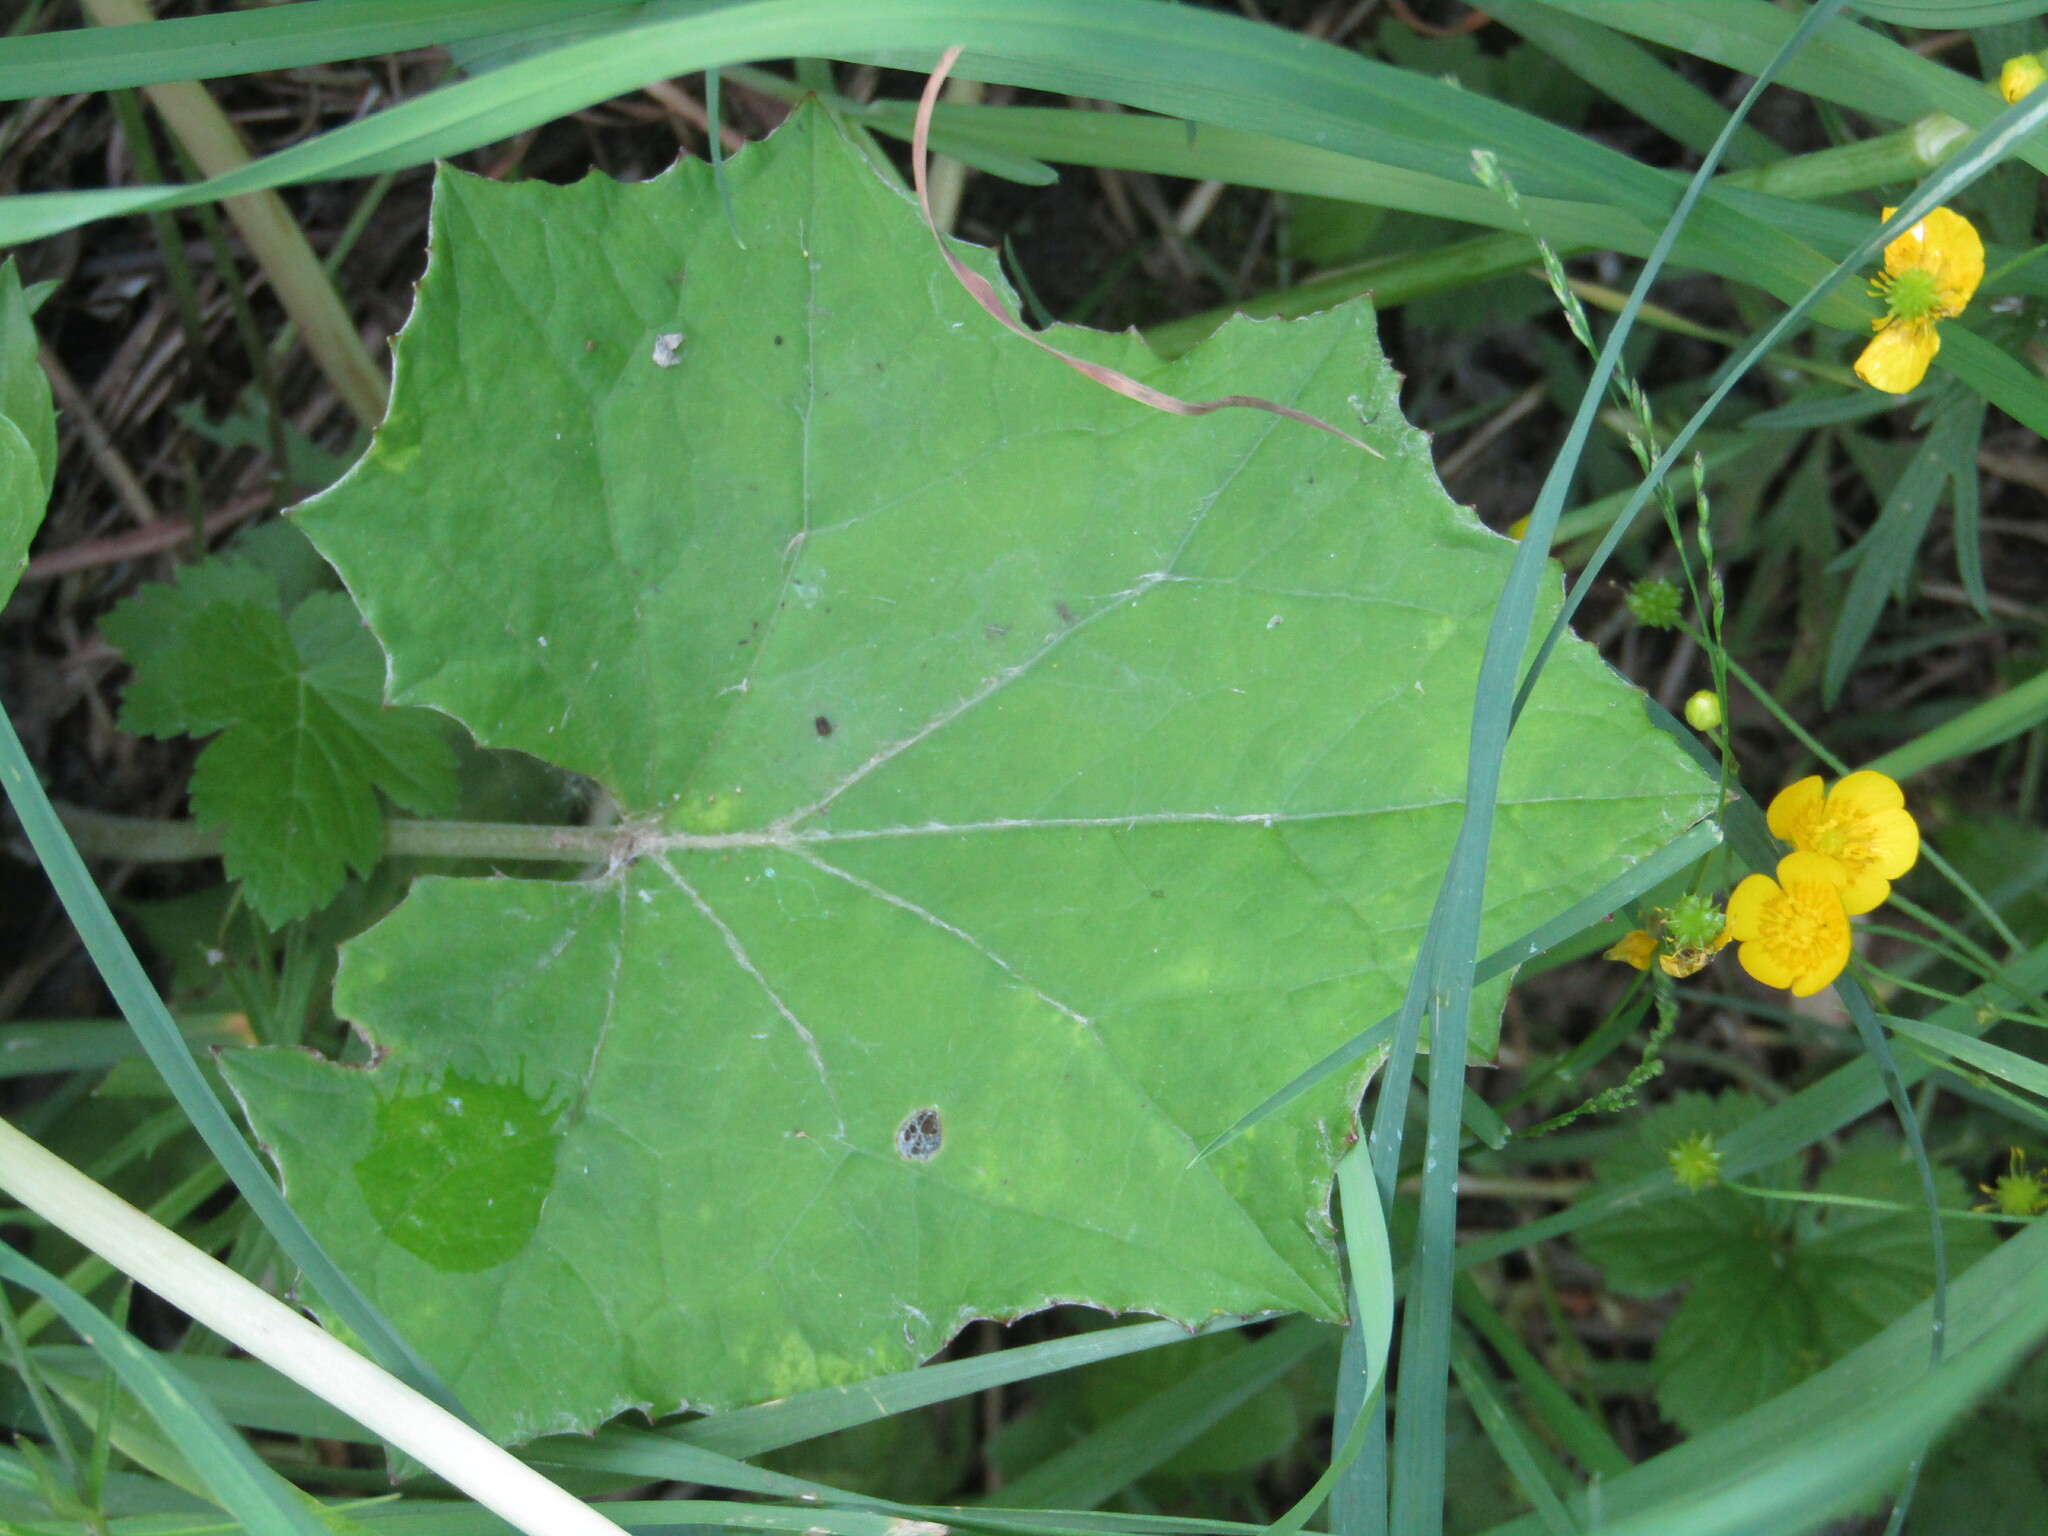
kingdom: Plantae
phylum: Tracheophyta
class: Magnoliopsida
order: Asterales
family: Asteraceae
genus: Tussilago
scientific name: Tussilago farfara
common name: Coltsfoot
